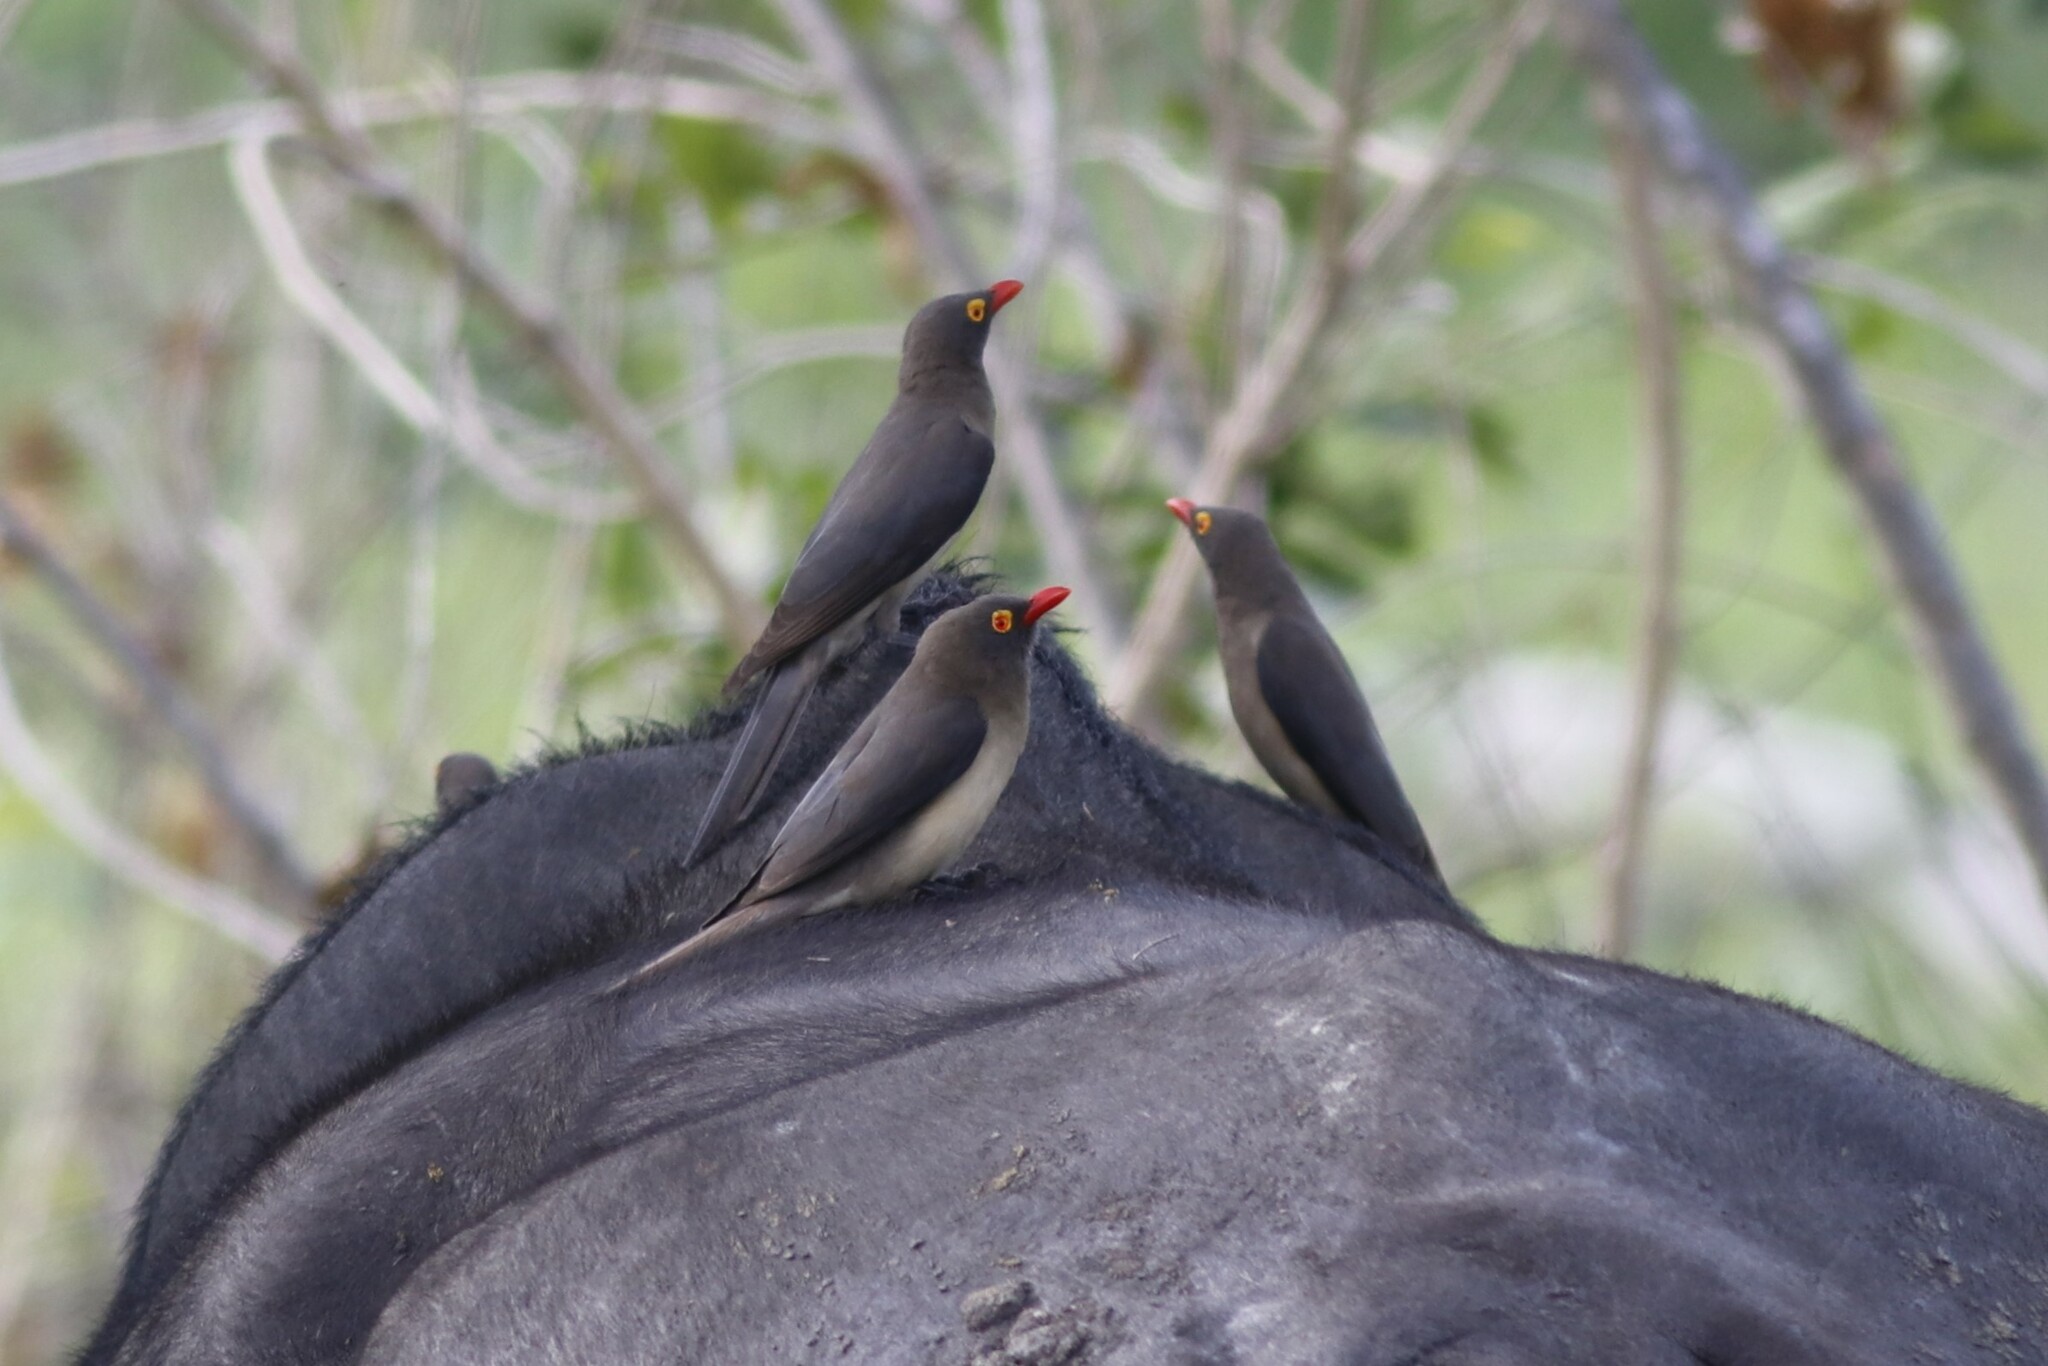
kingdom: Animalia
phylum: Chordata
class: Aves
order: Passeriformes
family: Buphagidae
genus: Buphagus
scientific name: Buphagus erythrorhynchus
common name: Red-billed oxpecker
